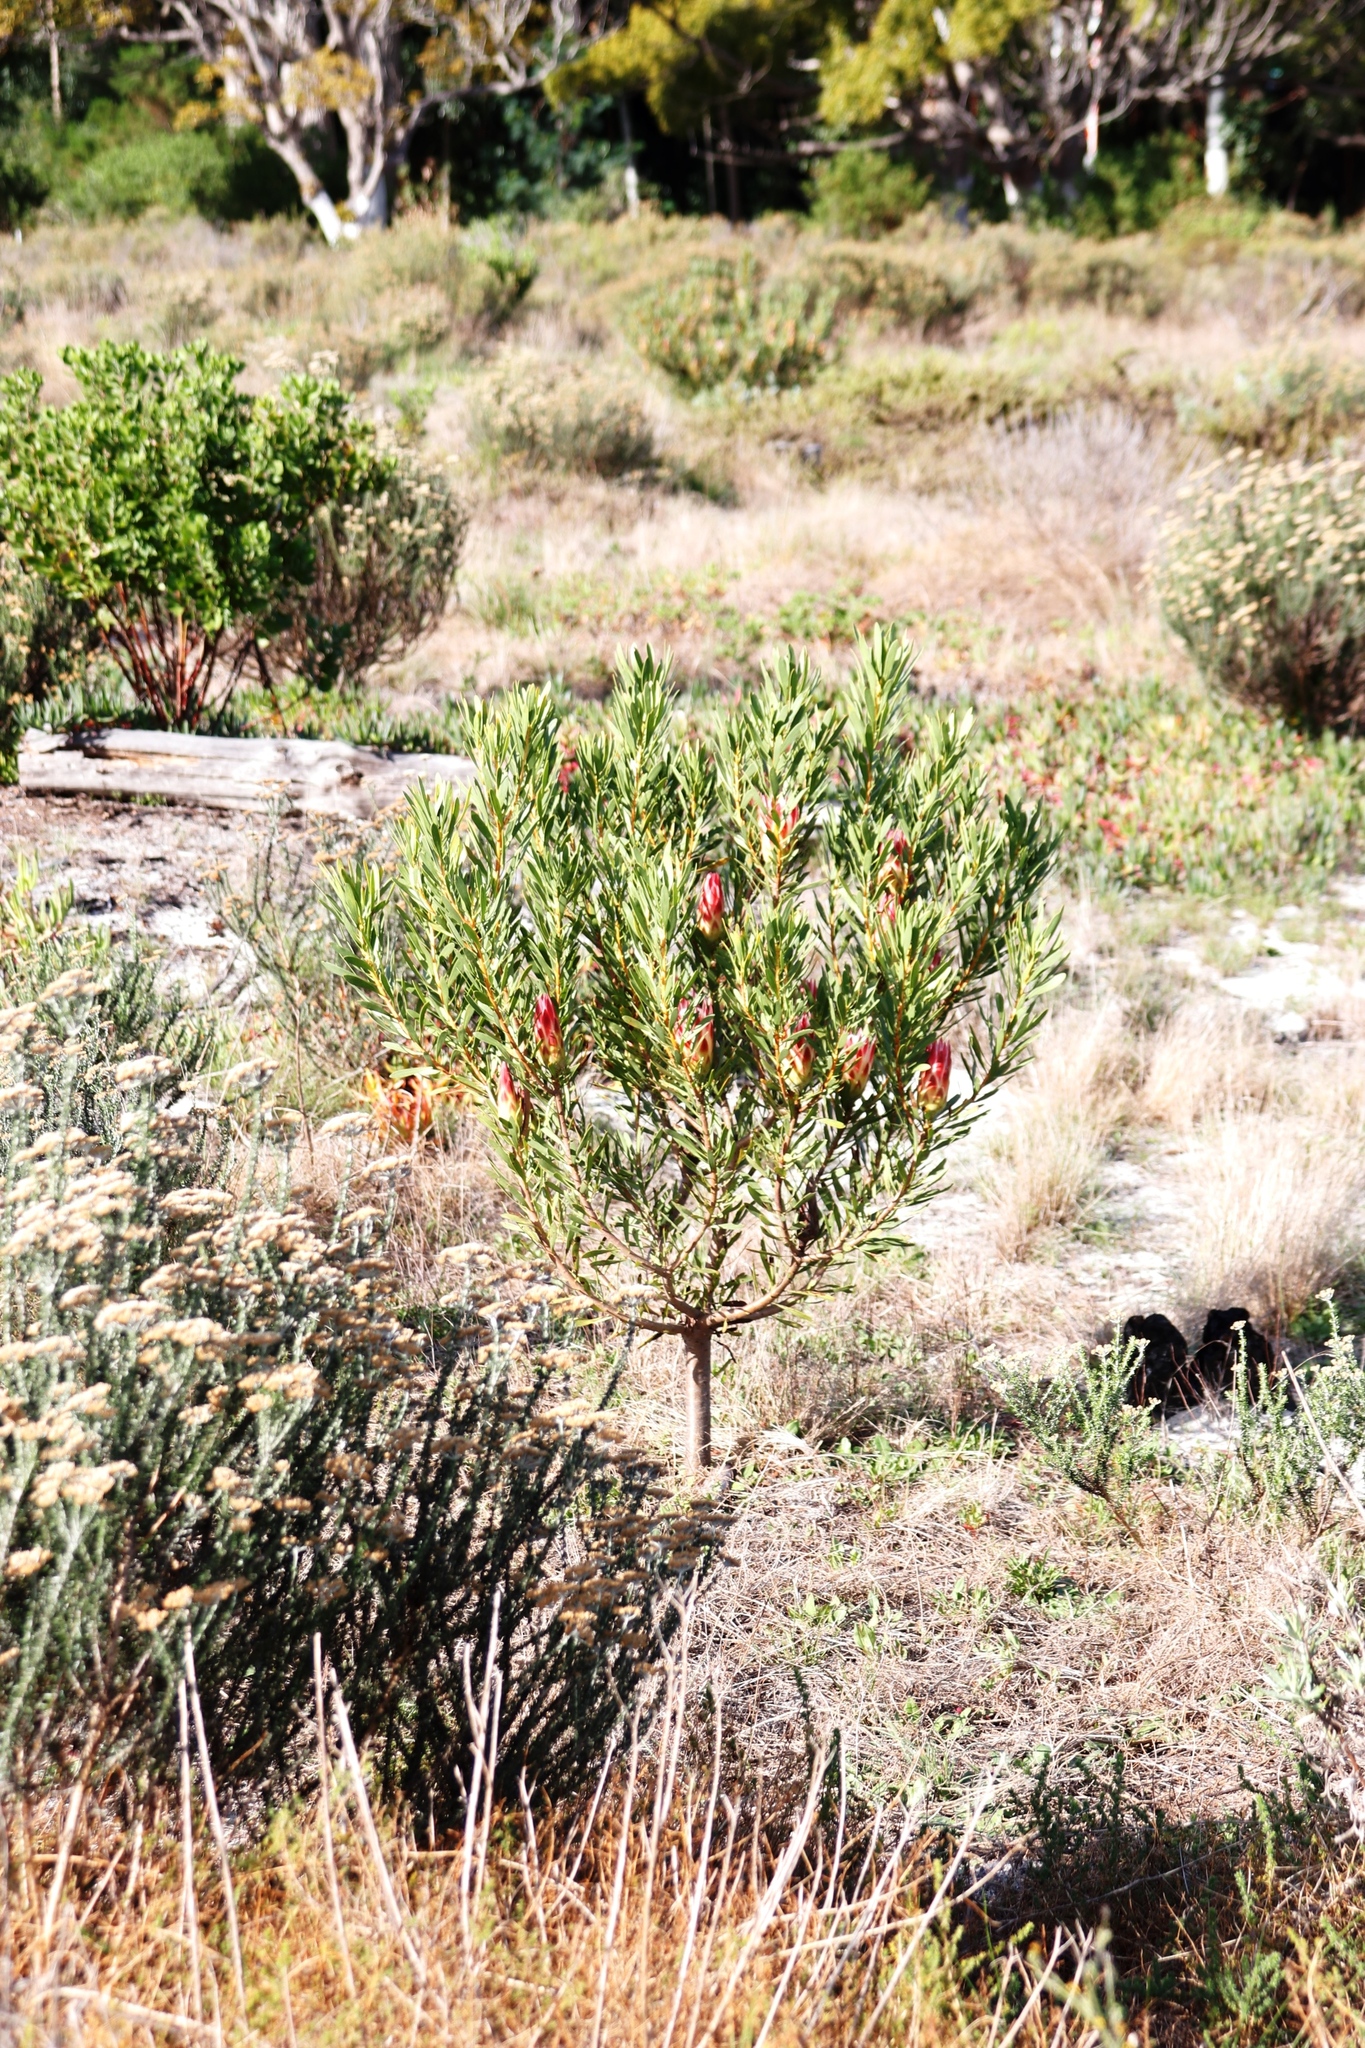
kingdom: Plantae
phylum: Tracheophyta
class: Magnoliopsida
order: Proteales
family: Proteaceae
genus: Protea
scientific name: Protea repens
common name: Sugarbush
